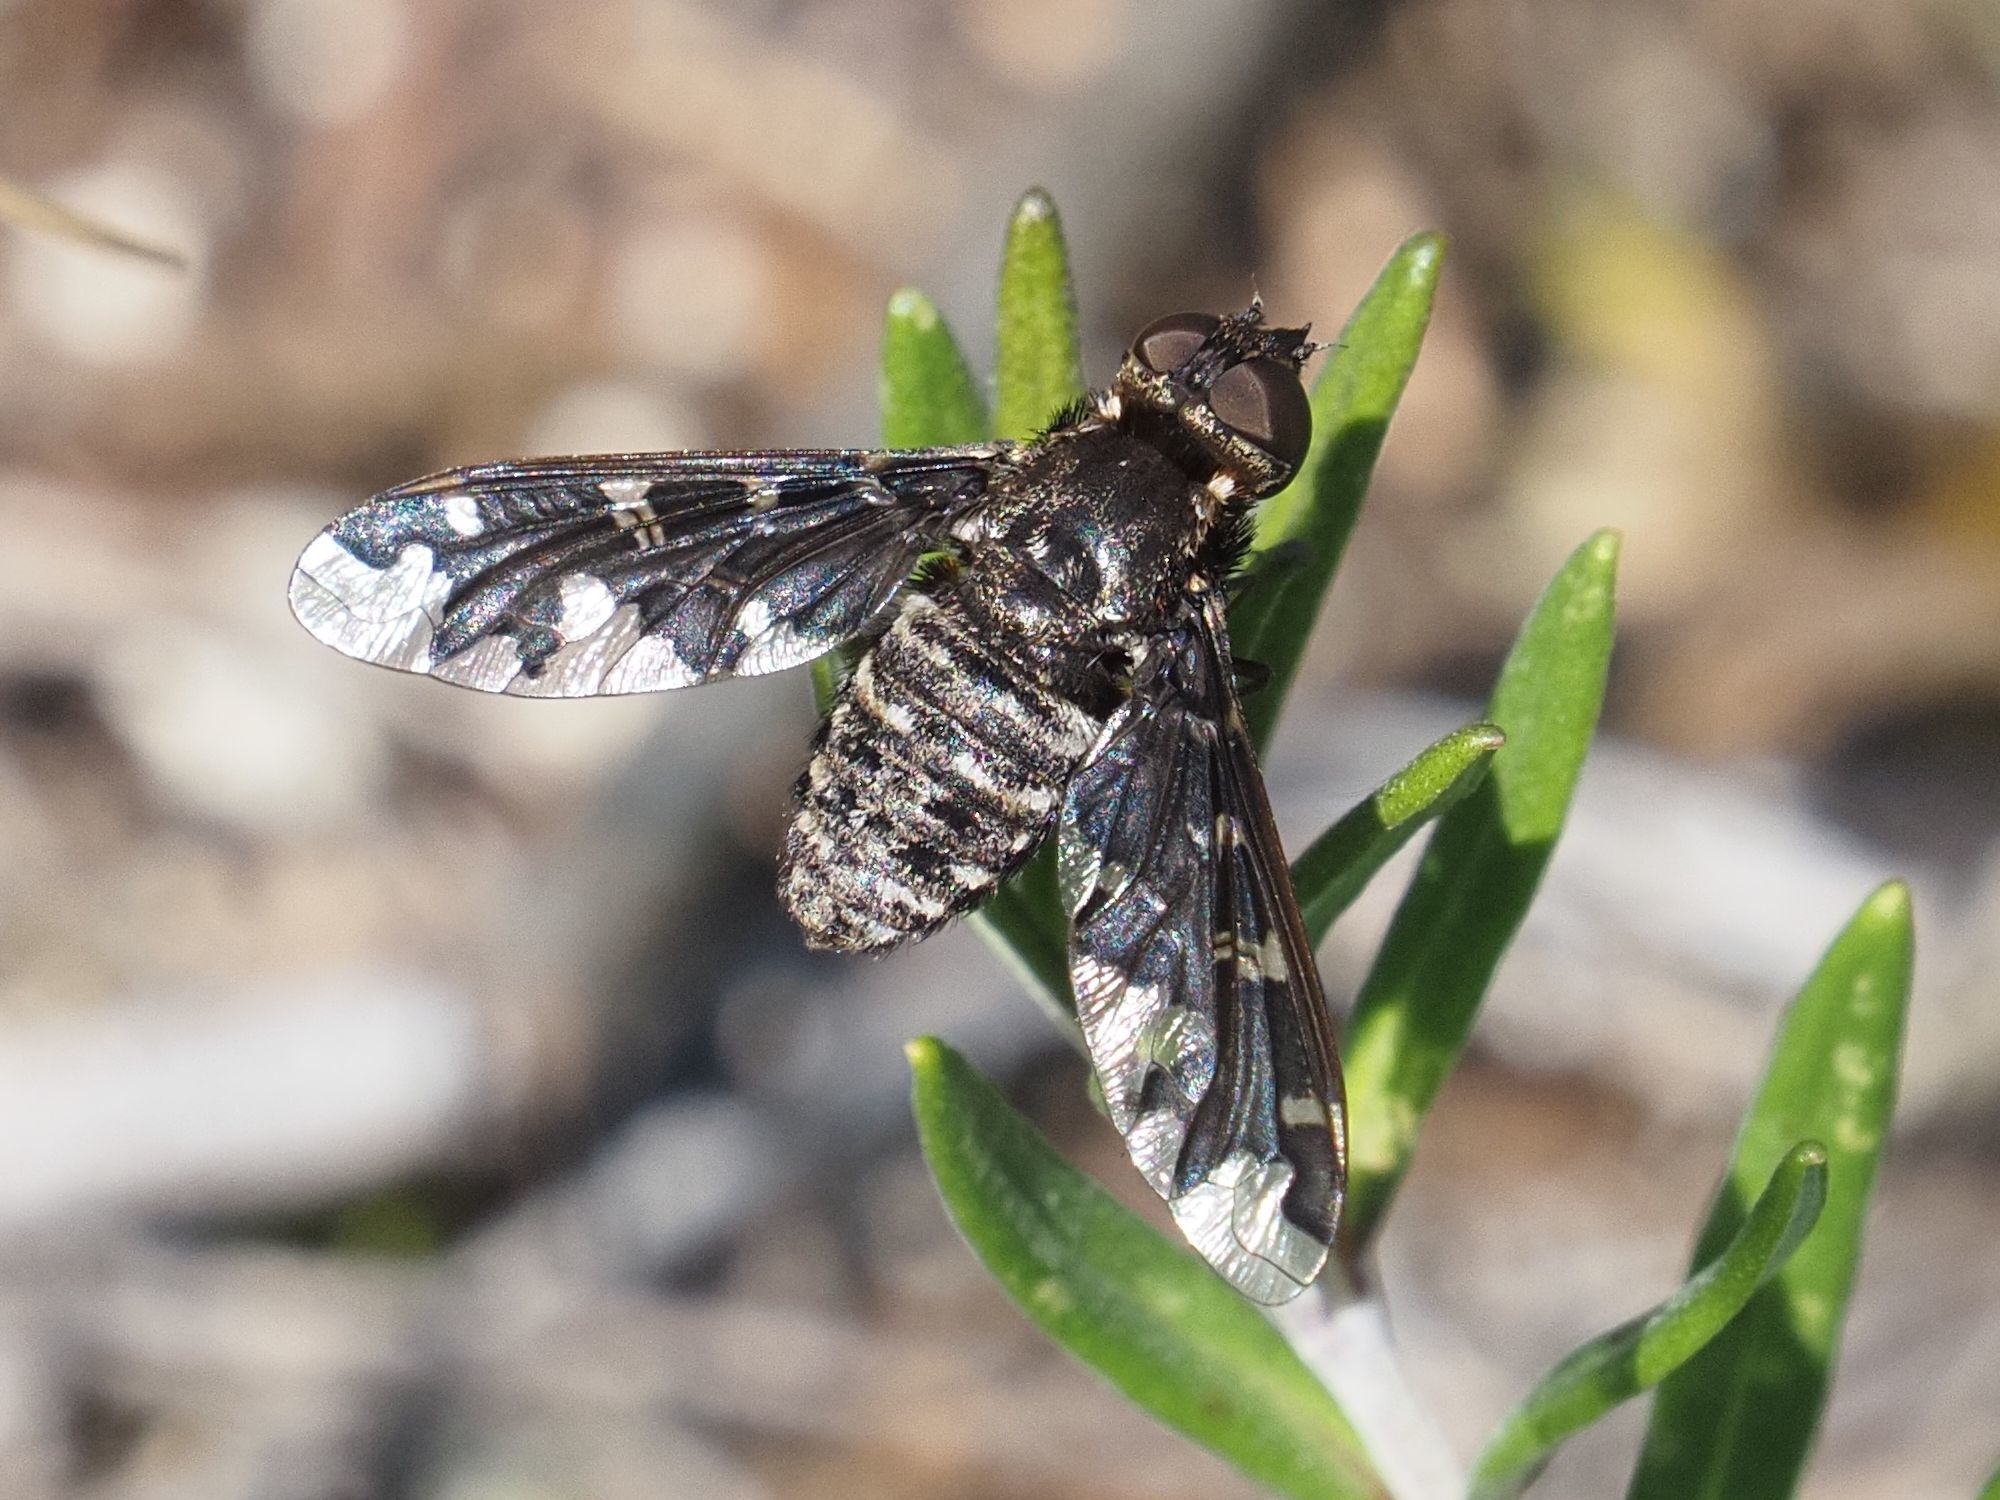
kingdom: Animalia
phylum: Arthropoda
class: Insecta
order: Diptera
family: Bombyliidae
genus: Exoprosopa
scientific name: Exoprosopa jacchus
